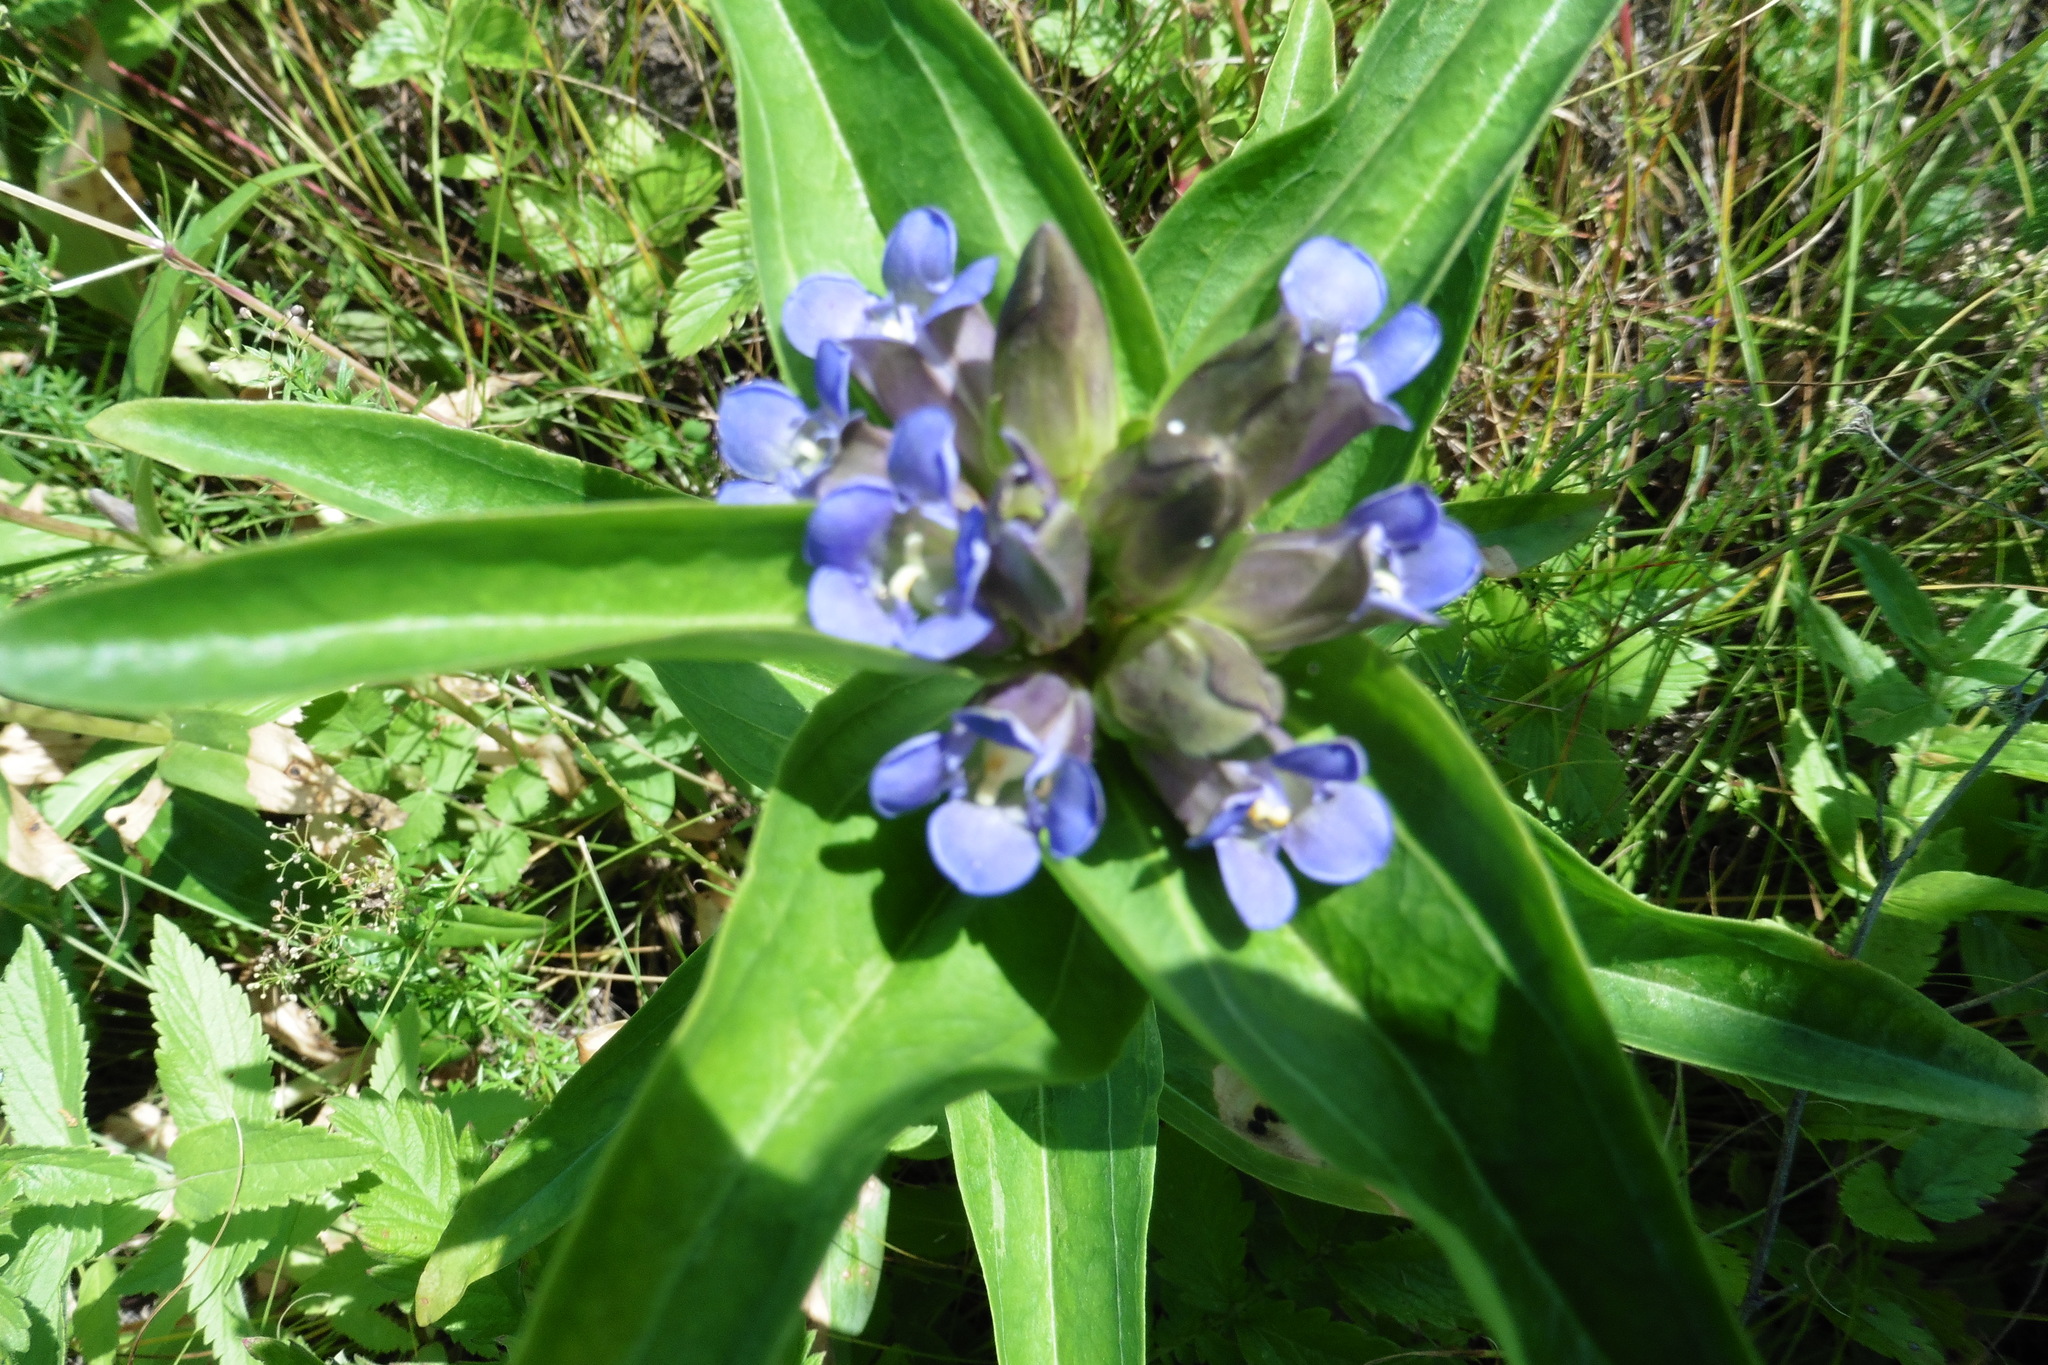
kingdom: Plantae
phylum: Tracheophyta
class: Magnoliopsida
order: Gentianales
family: Gentianaceae
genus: Gentiana
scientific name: Gentiana cruciata
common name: Cross gentian
